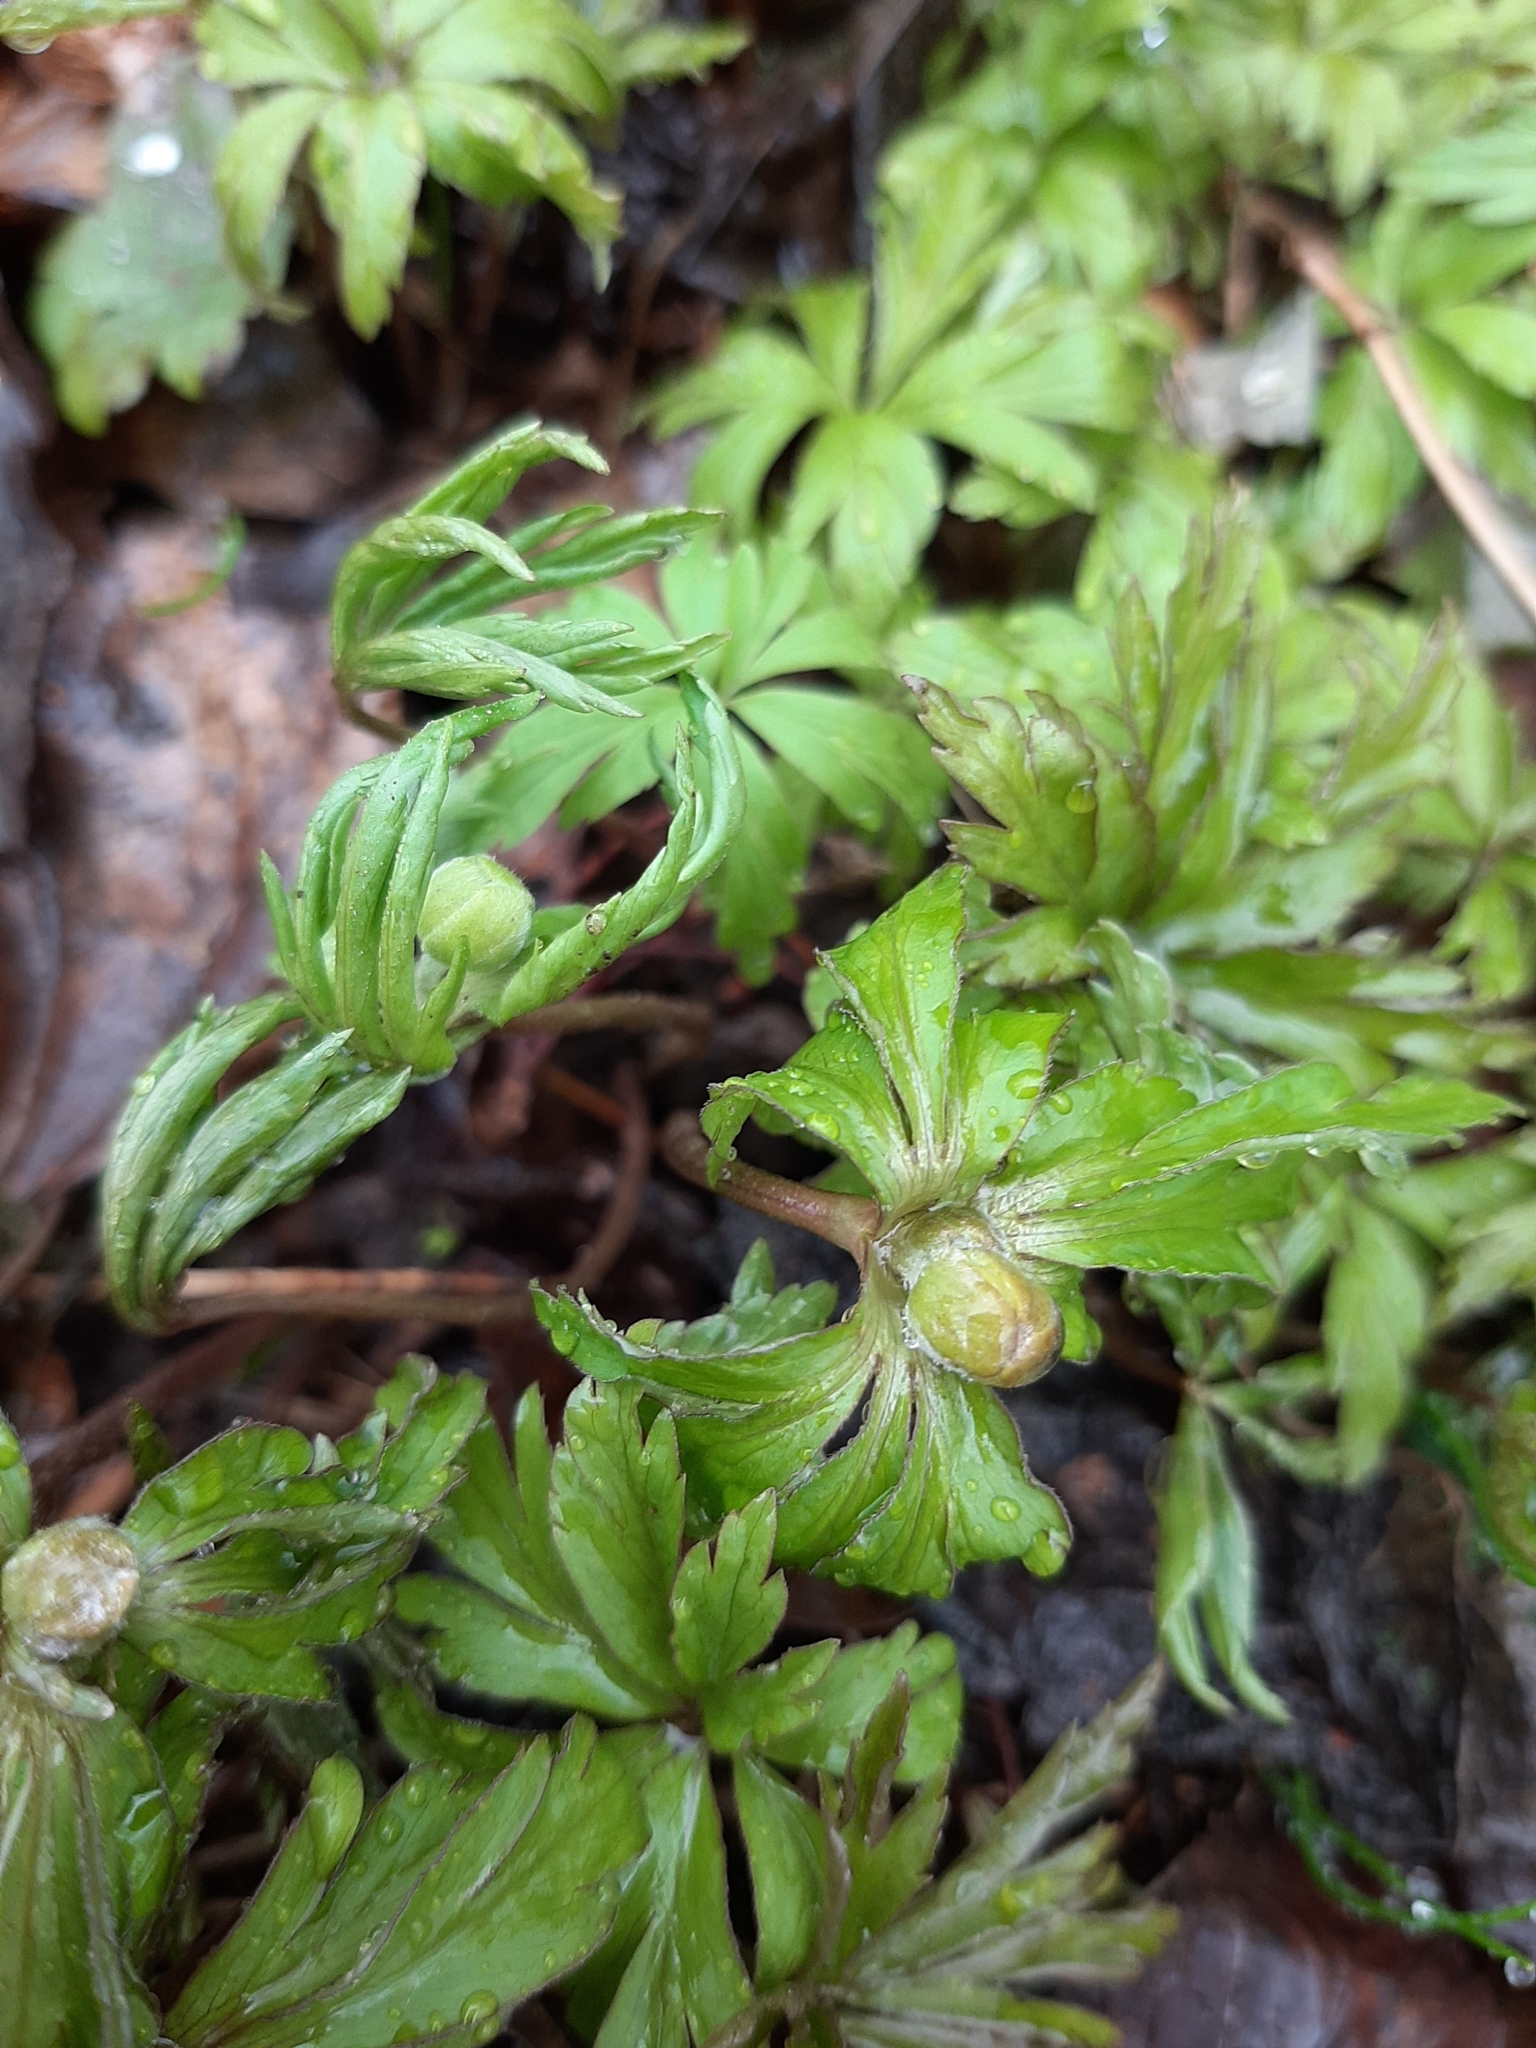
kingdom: Plantae
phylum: Tracheophyta
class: Magnoliopsida
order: Ranunculales
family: Ranunculaceae
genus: Anemone
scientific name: Anemone ranunculoides
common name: Yellow anemone
